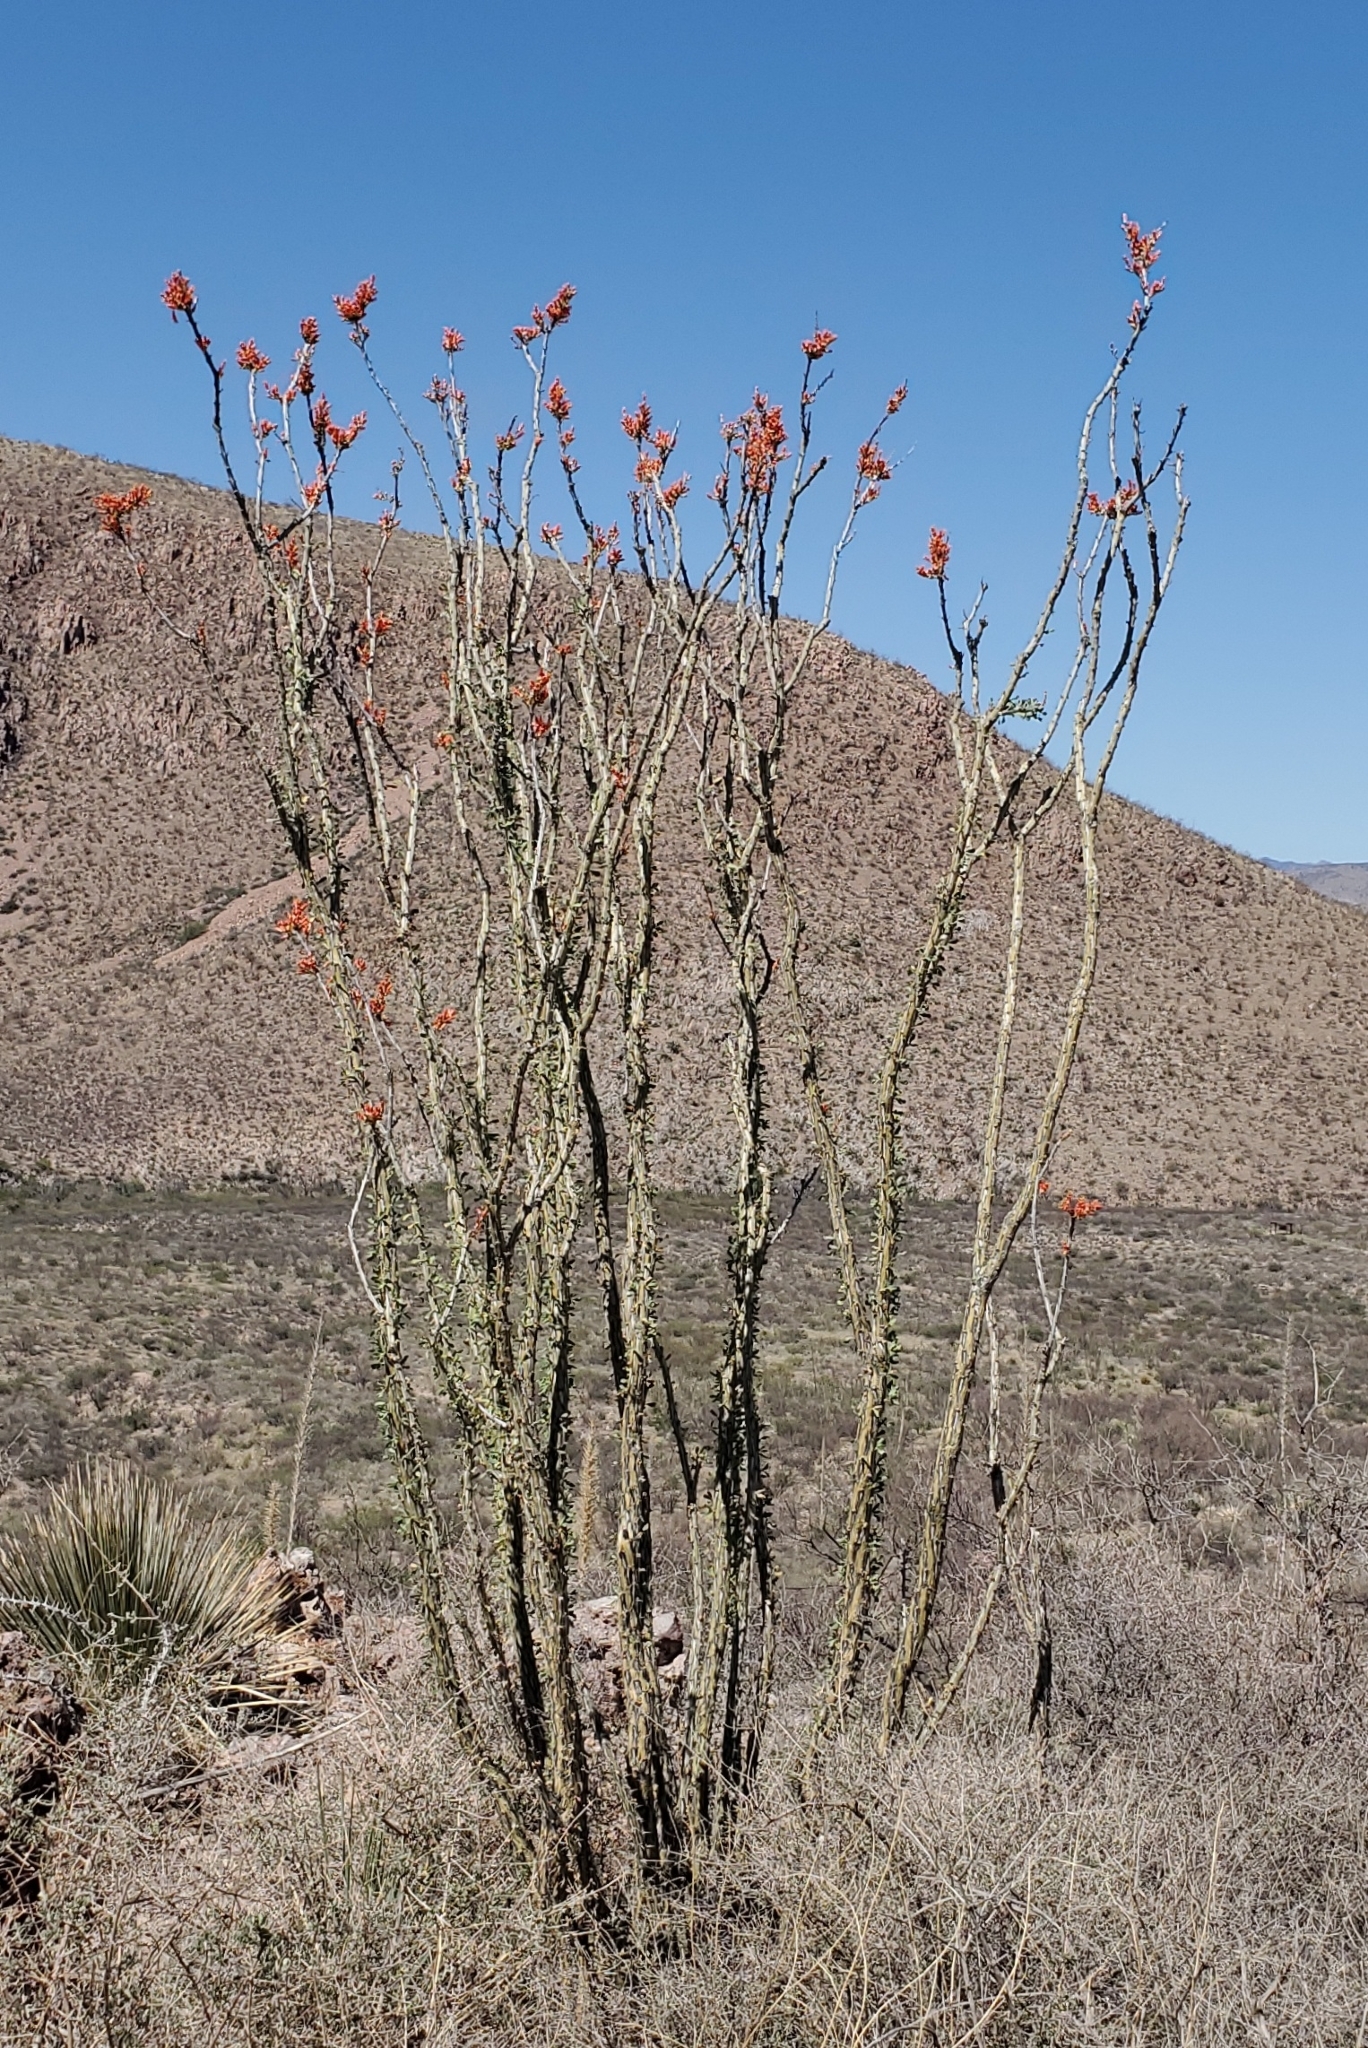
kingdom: Plantae
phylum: Tracheophyta
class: Magnoliopsida
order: Ericales
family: Fouquieriaceae
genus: Fouquieria
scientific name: Fouquieria splendens
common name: Vine-cactus
